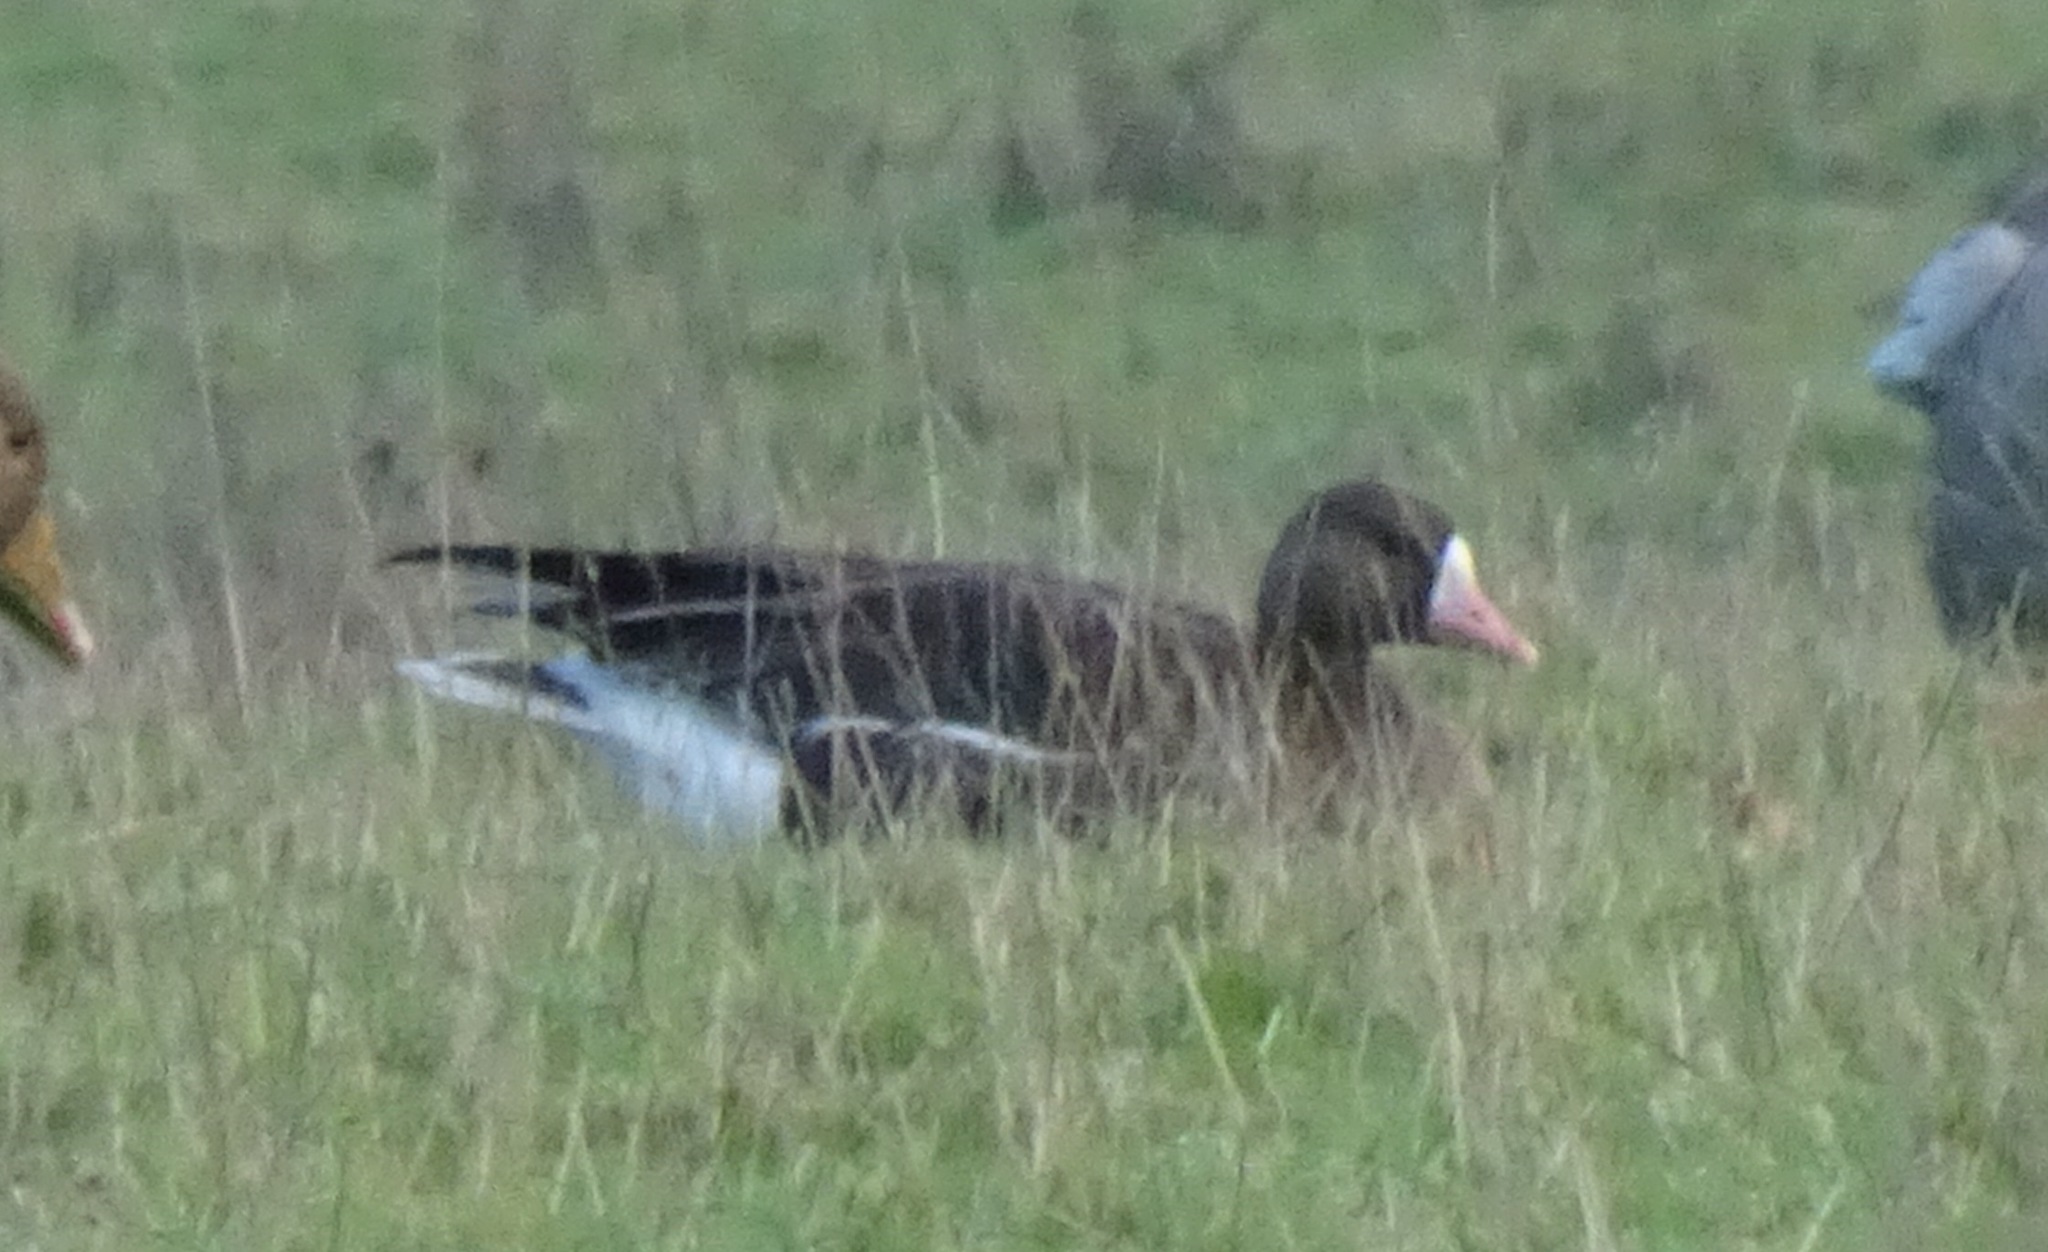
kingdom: Animalia
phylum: Chordata
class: Aves
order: Anseriformes
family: Anatidae
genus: Anser
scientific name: Anser albifrons
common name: Greater white-fronted goose
